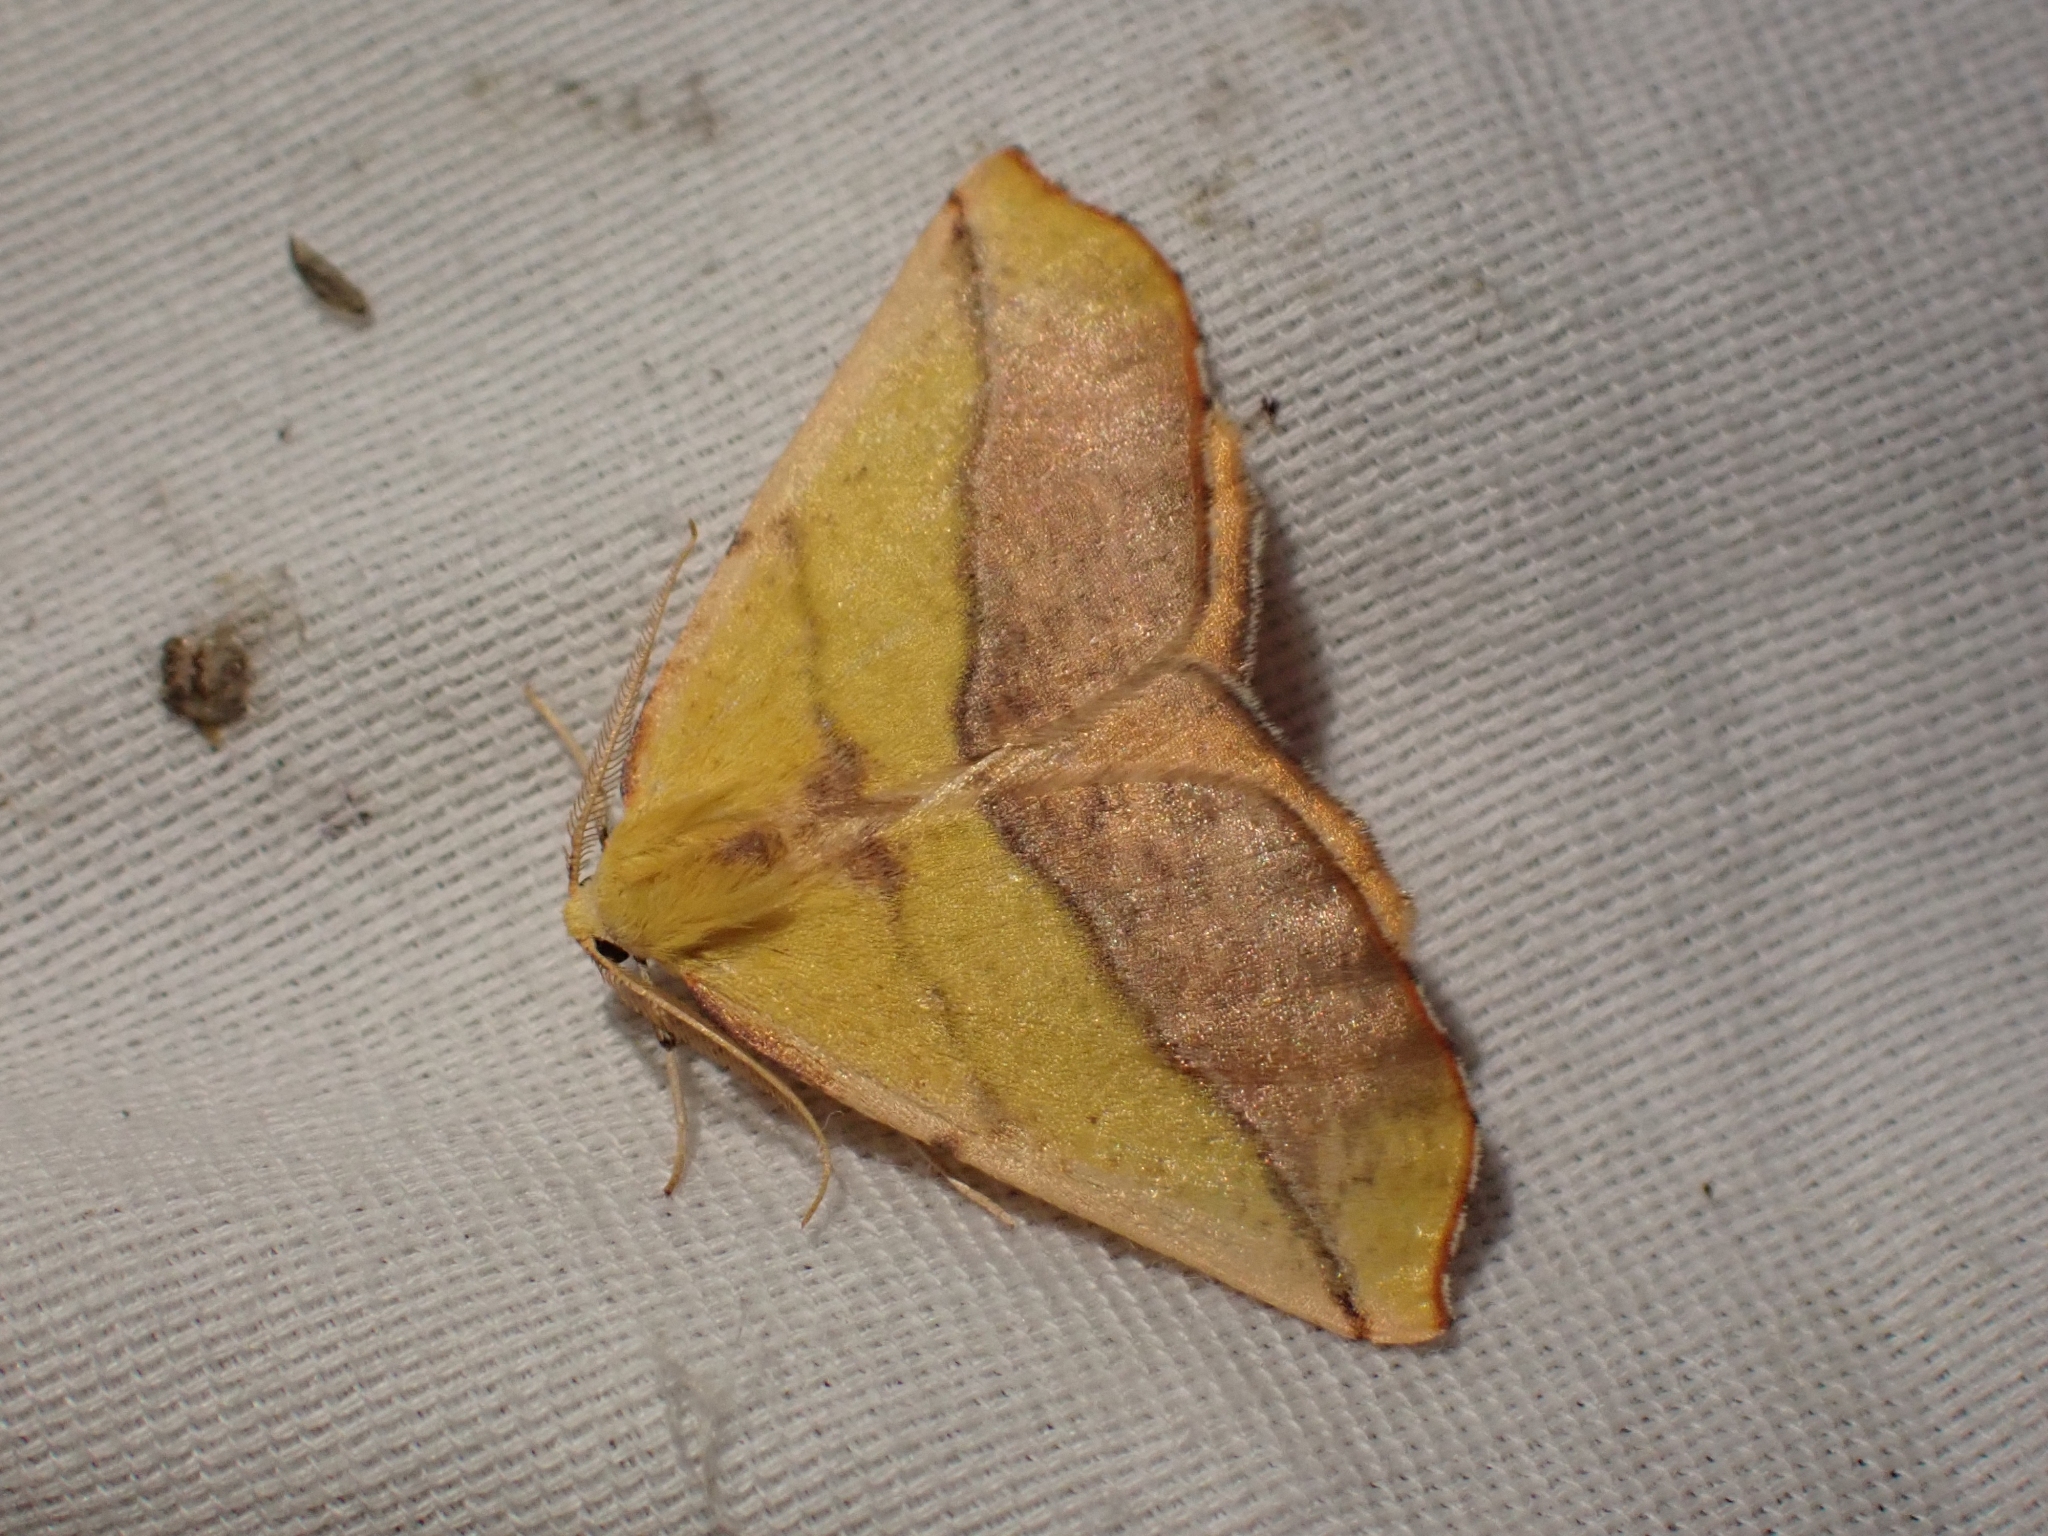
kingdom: Animalia
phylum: Arthropoda
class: Insecta
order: Lepidoptera
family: Geometridae
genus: Sicya
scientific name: Sicya macularia
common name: Sharp-lined yellow
